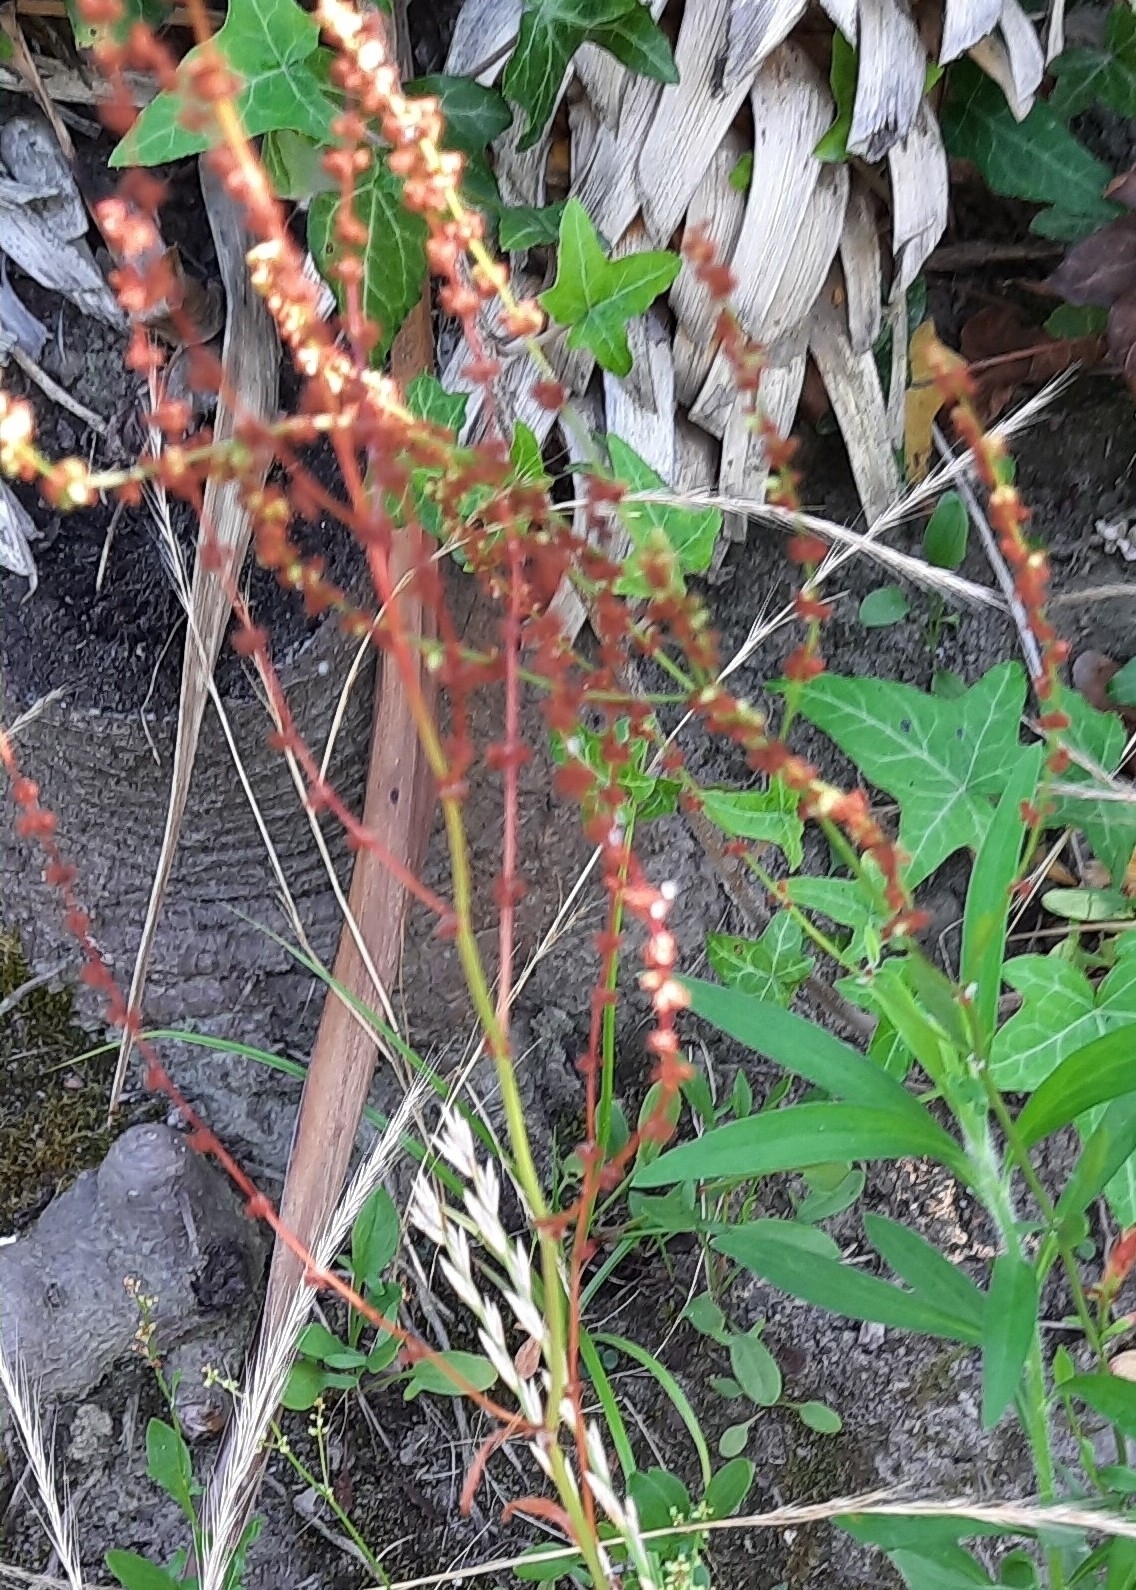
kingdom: Plantae
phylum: Tracheophyta
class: Magnoliopsida
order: Caryophyllales
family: Polygonaceae
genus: Rumex
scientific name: Rumex acetosella
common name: Common sheep sorrel
